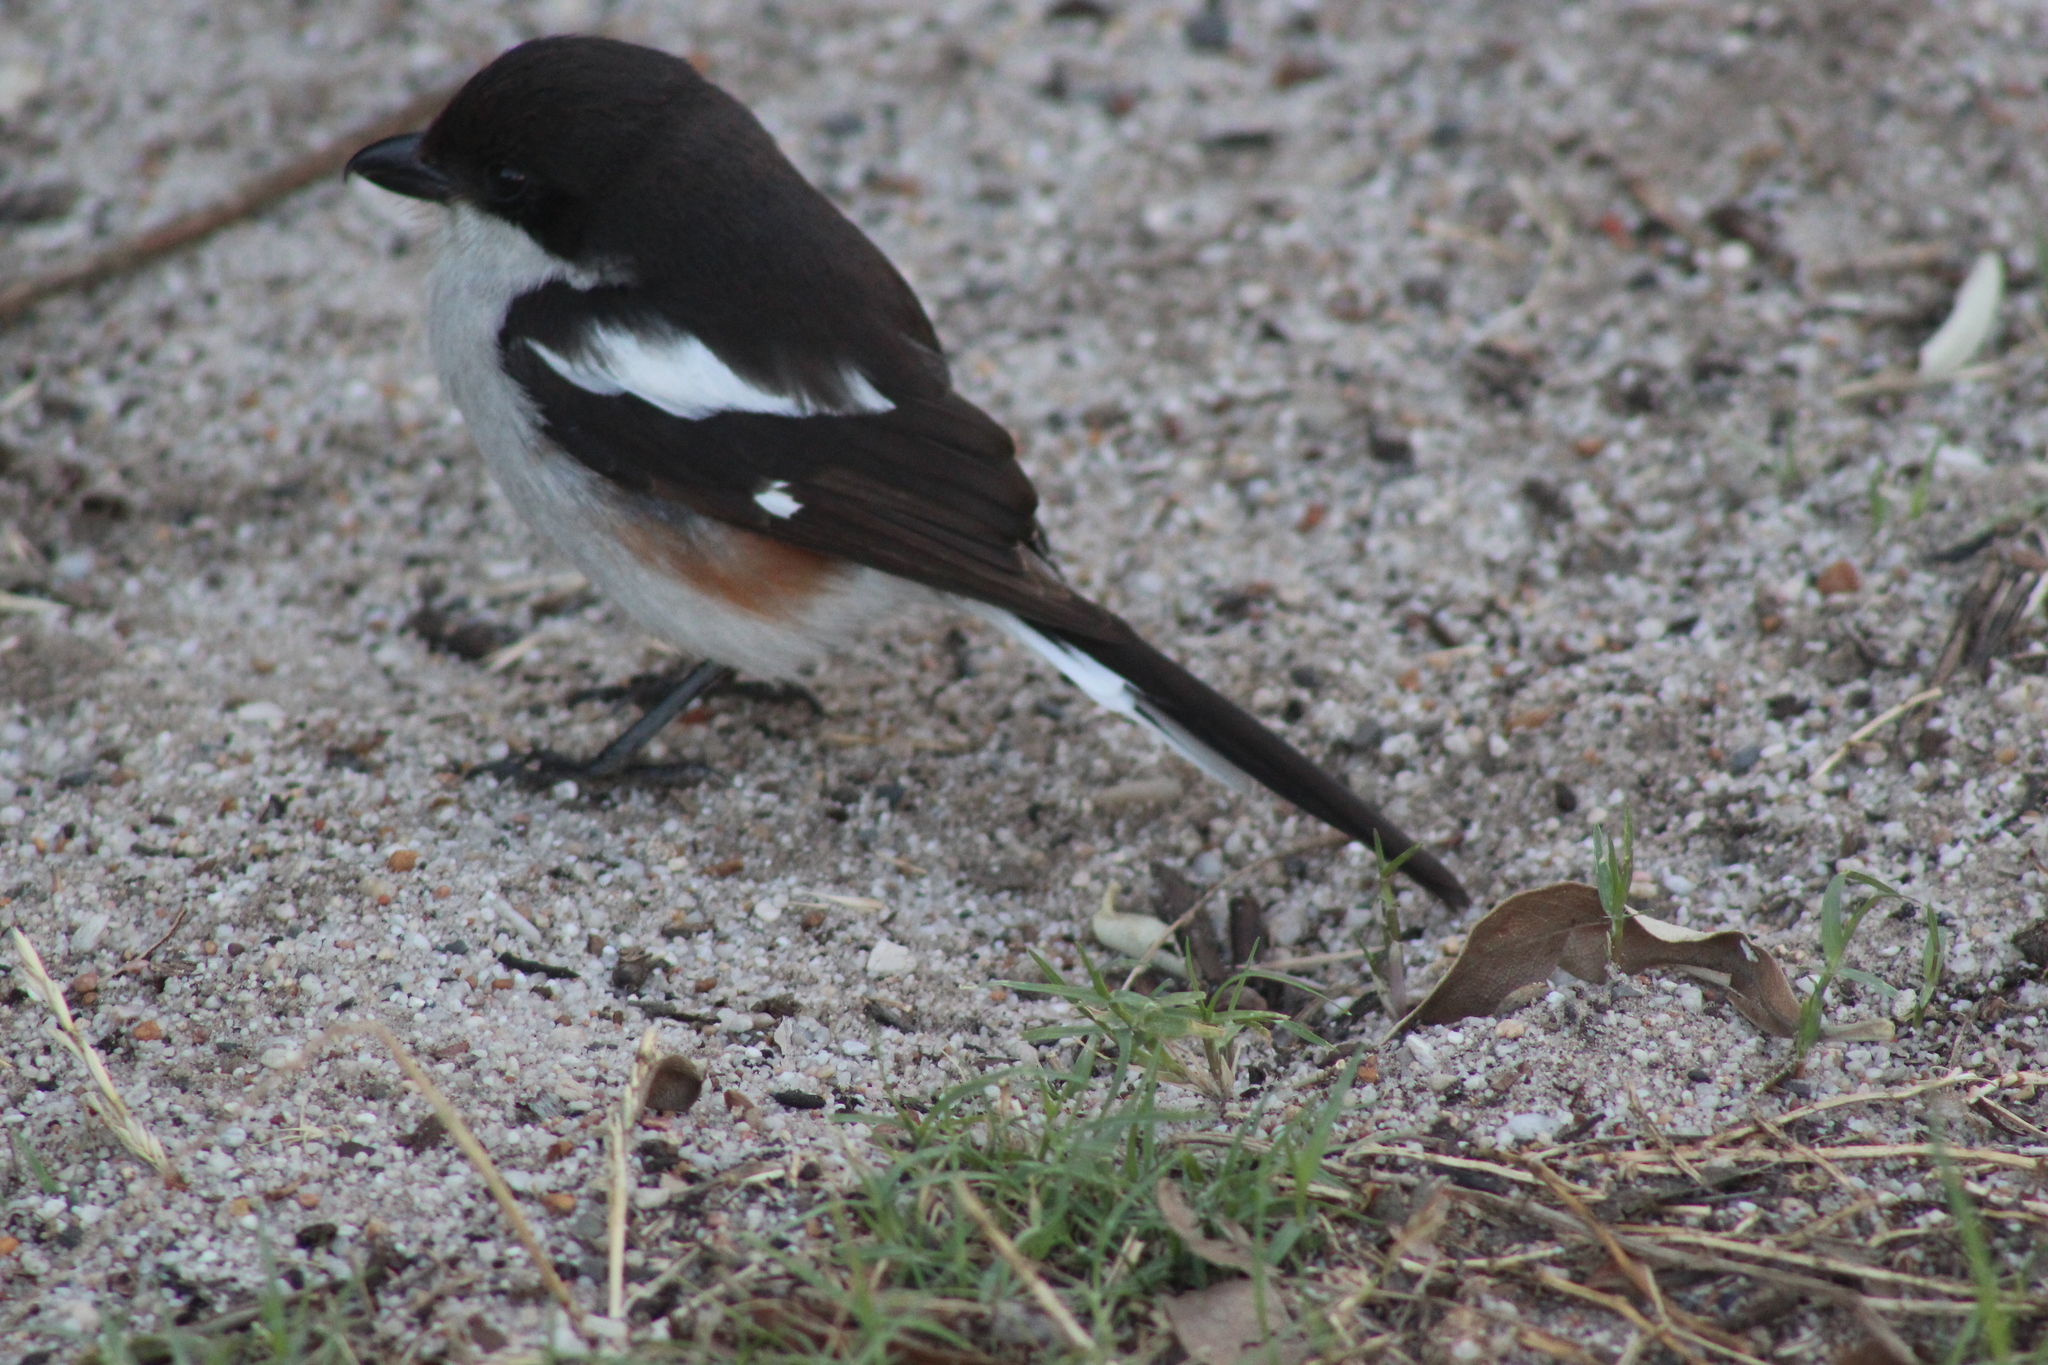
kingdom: Animalia
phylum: Chordata
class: Aves
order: Passeriformes
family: Laniidae
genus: Lanius
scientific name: Lanius collaris
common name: Southern fiscal
